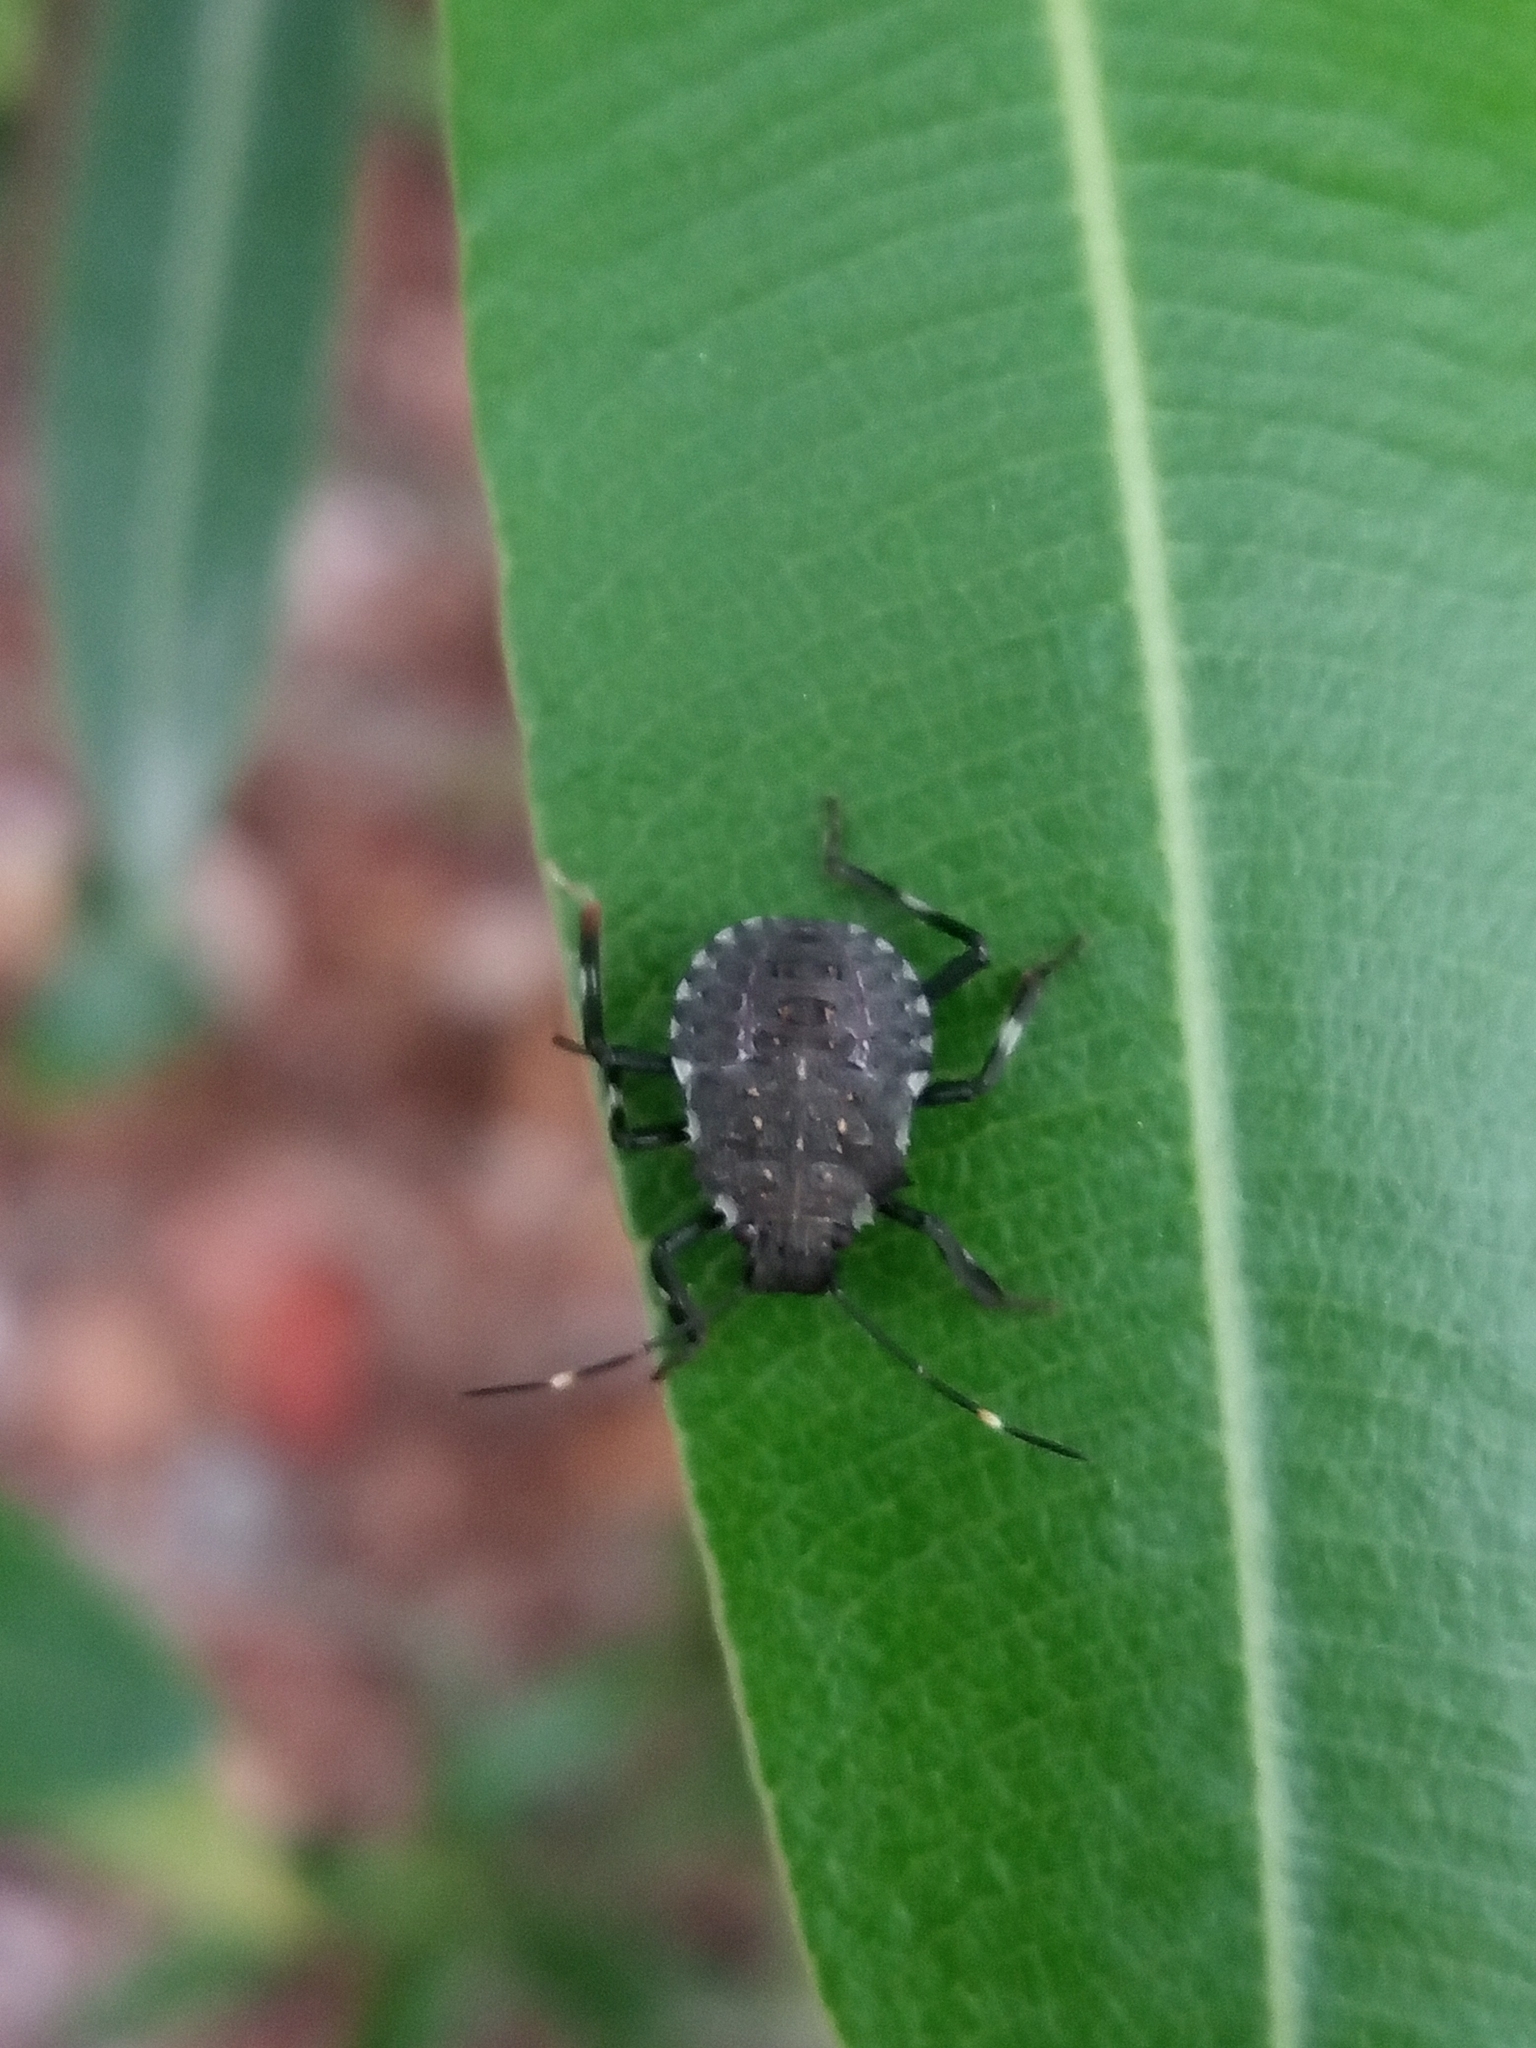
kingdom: Animalia
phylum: Arthropoda
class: Insecta
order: Hemiptera
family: Pentatomidae
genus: Halyomorpha
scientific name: Halyomorpha halys
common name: Brown marmorated stink bug
